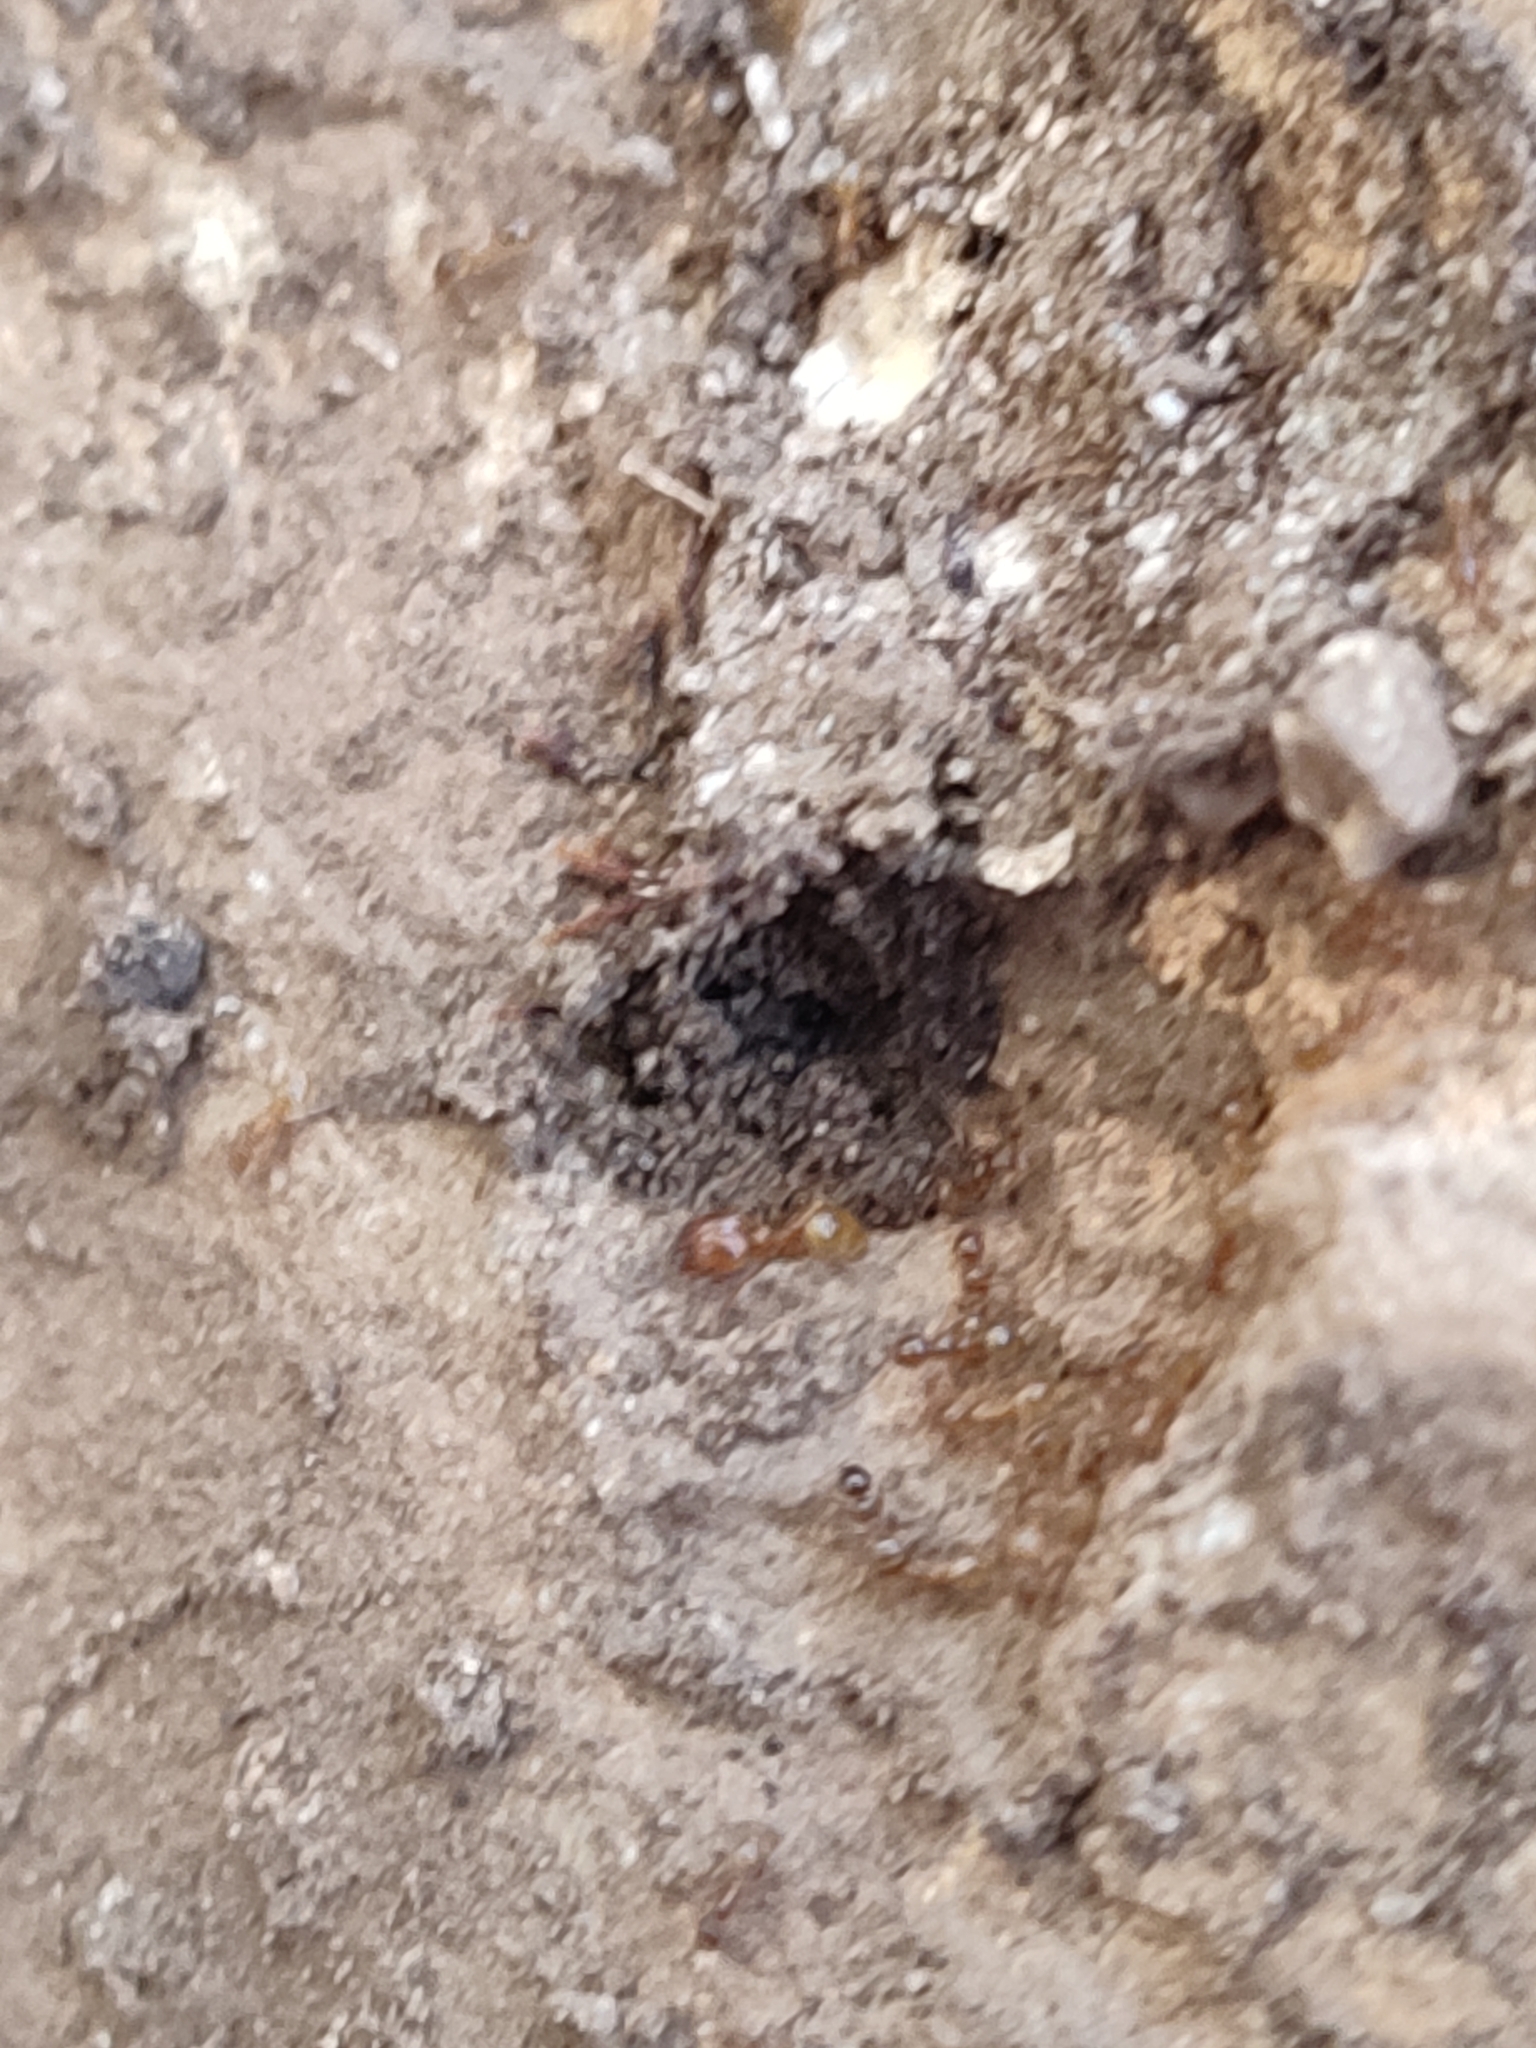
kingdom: Animalia
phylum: Arthropoda
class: Insecta
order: Hymenoptera
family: Formicidae
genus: Pheidole
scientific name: Pheidole pallidula
